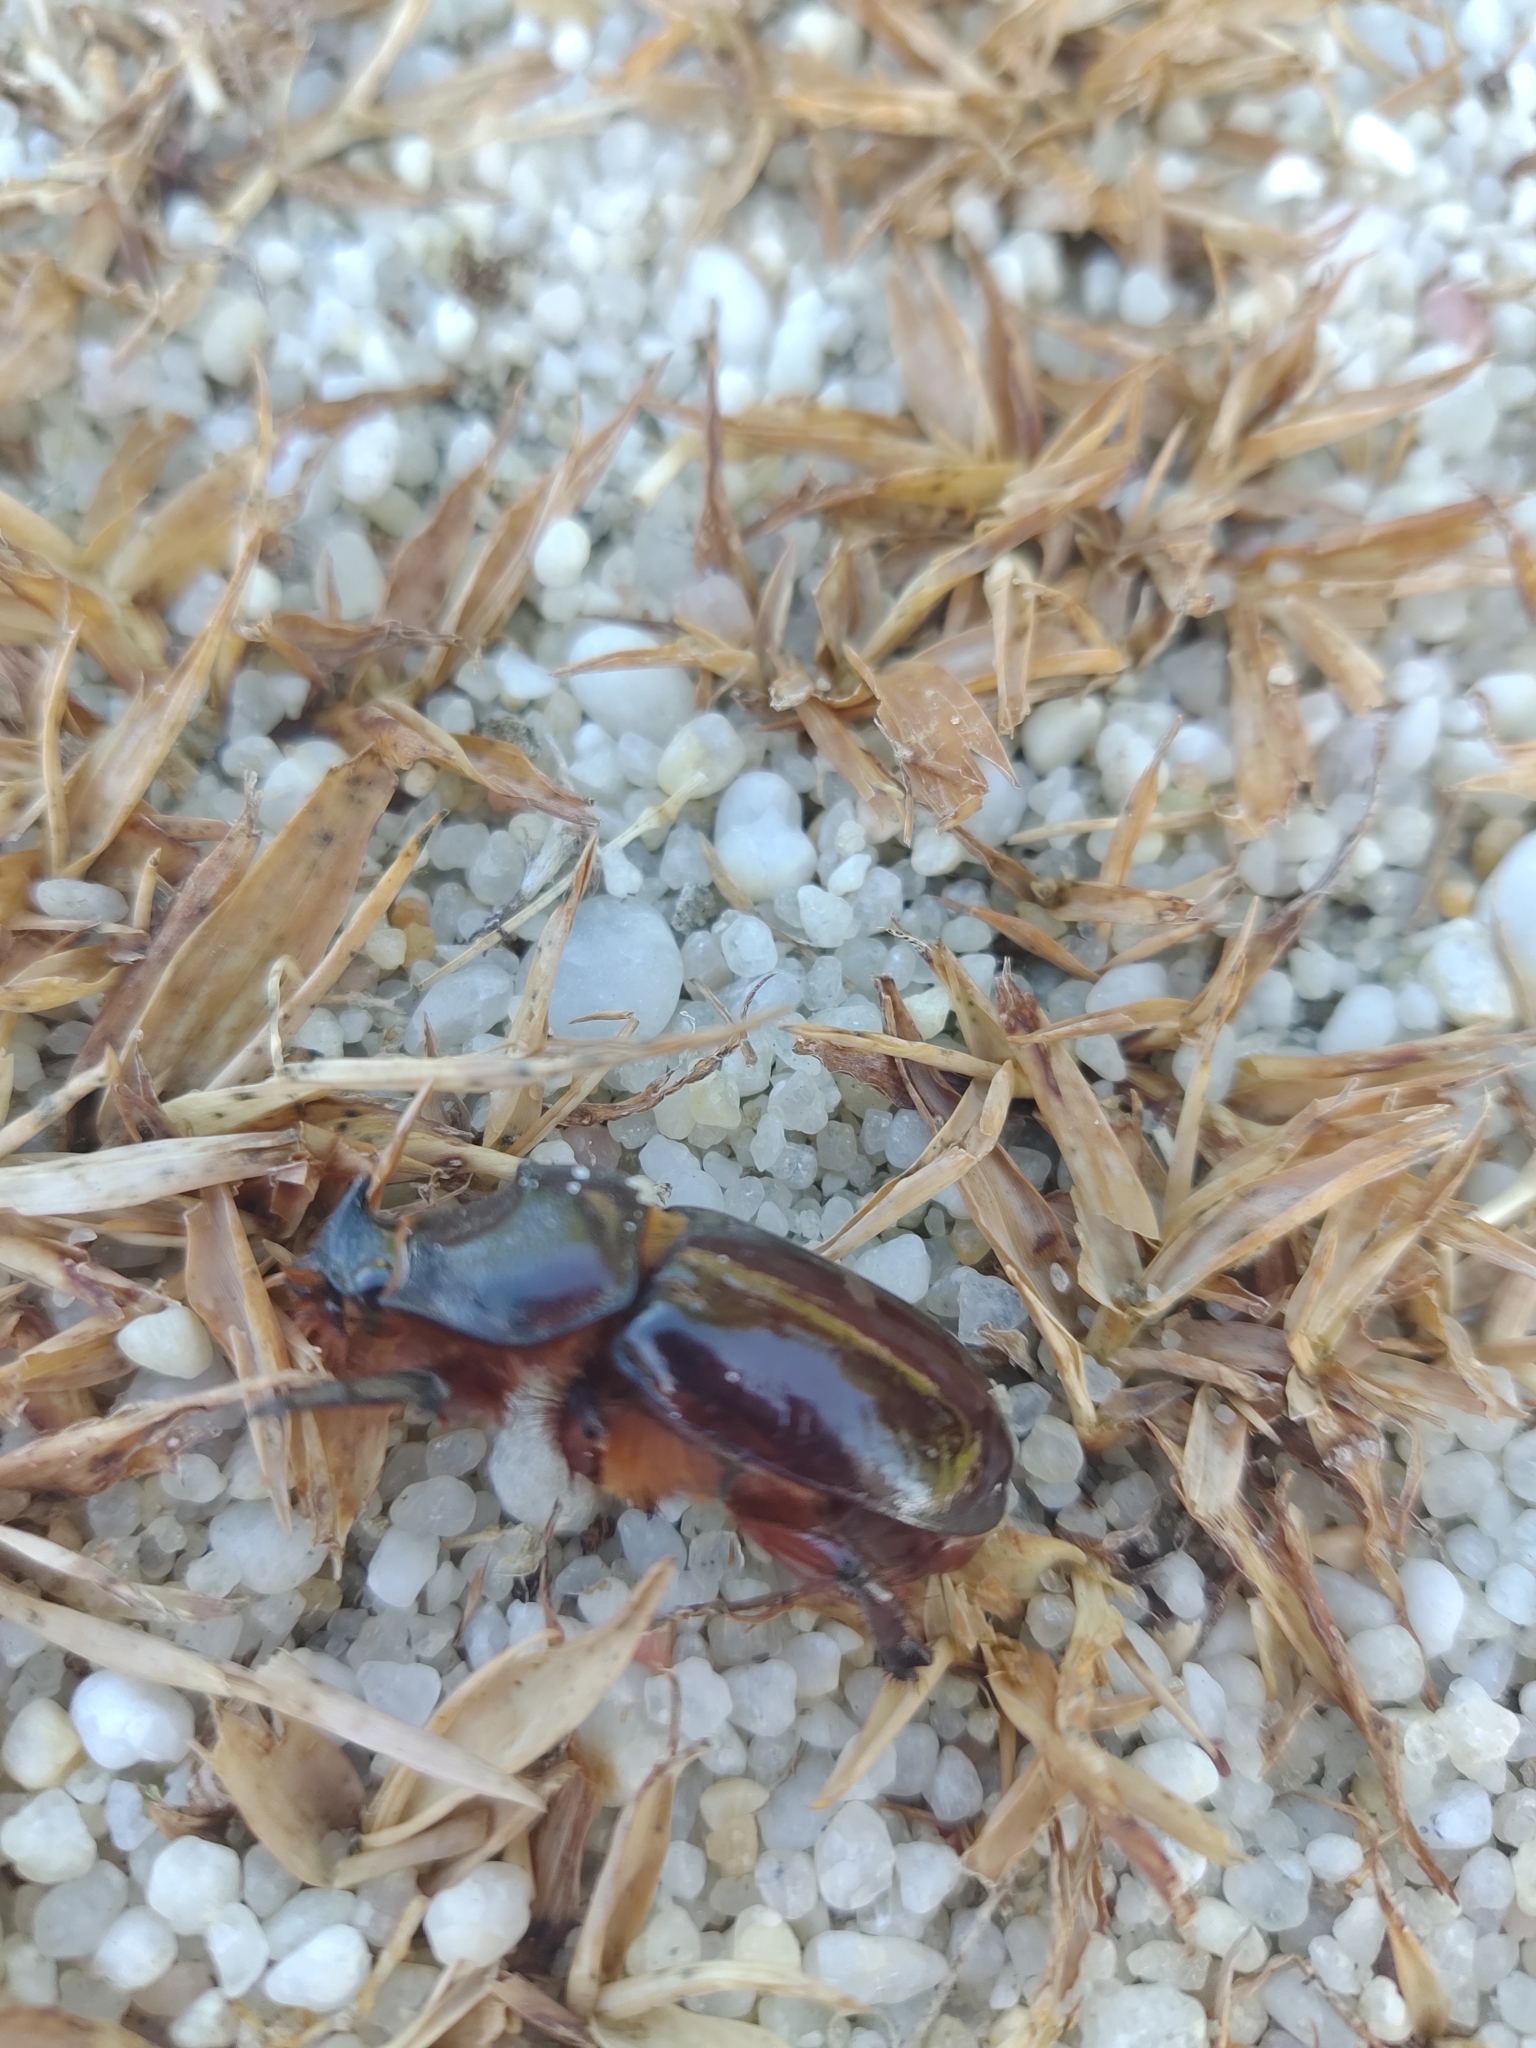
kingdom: Animalia
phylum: Arthropoda
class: Insecta
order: Coleoptera
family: Scarabaeidae
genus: Oryctes
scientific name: Oryctes nasicornis
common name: European rhinoceros beetle
